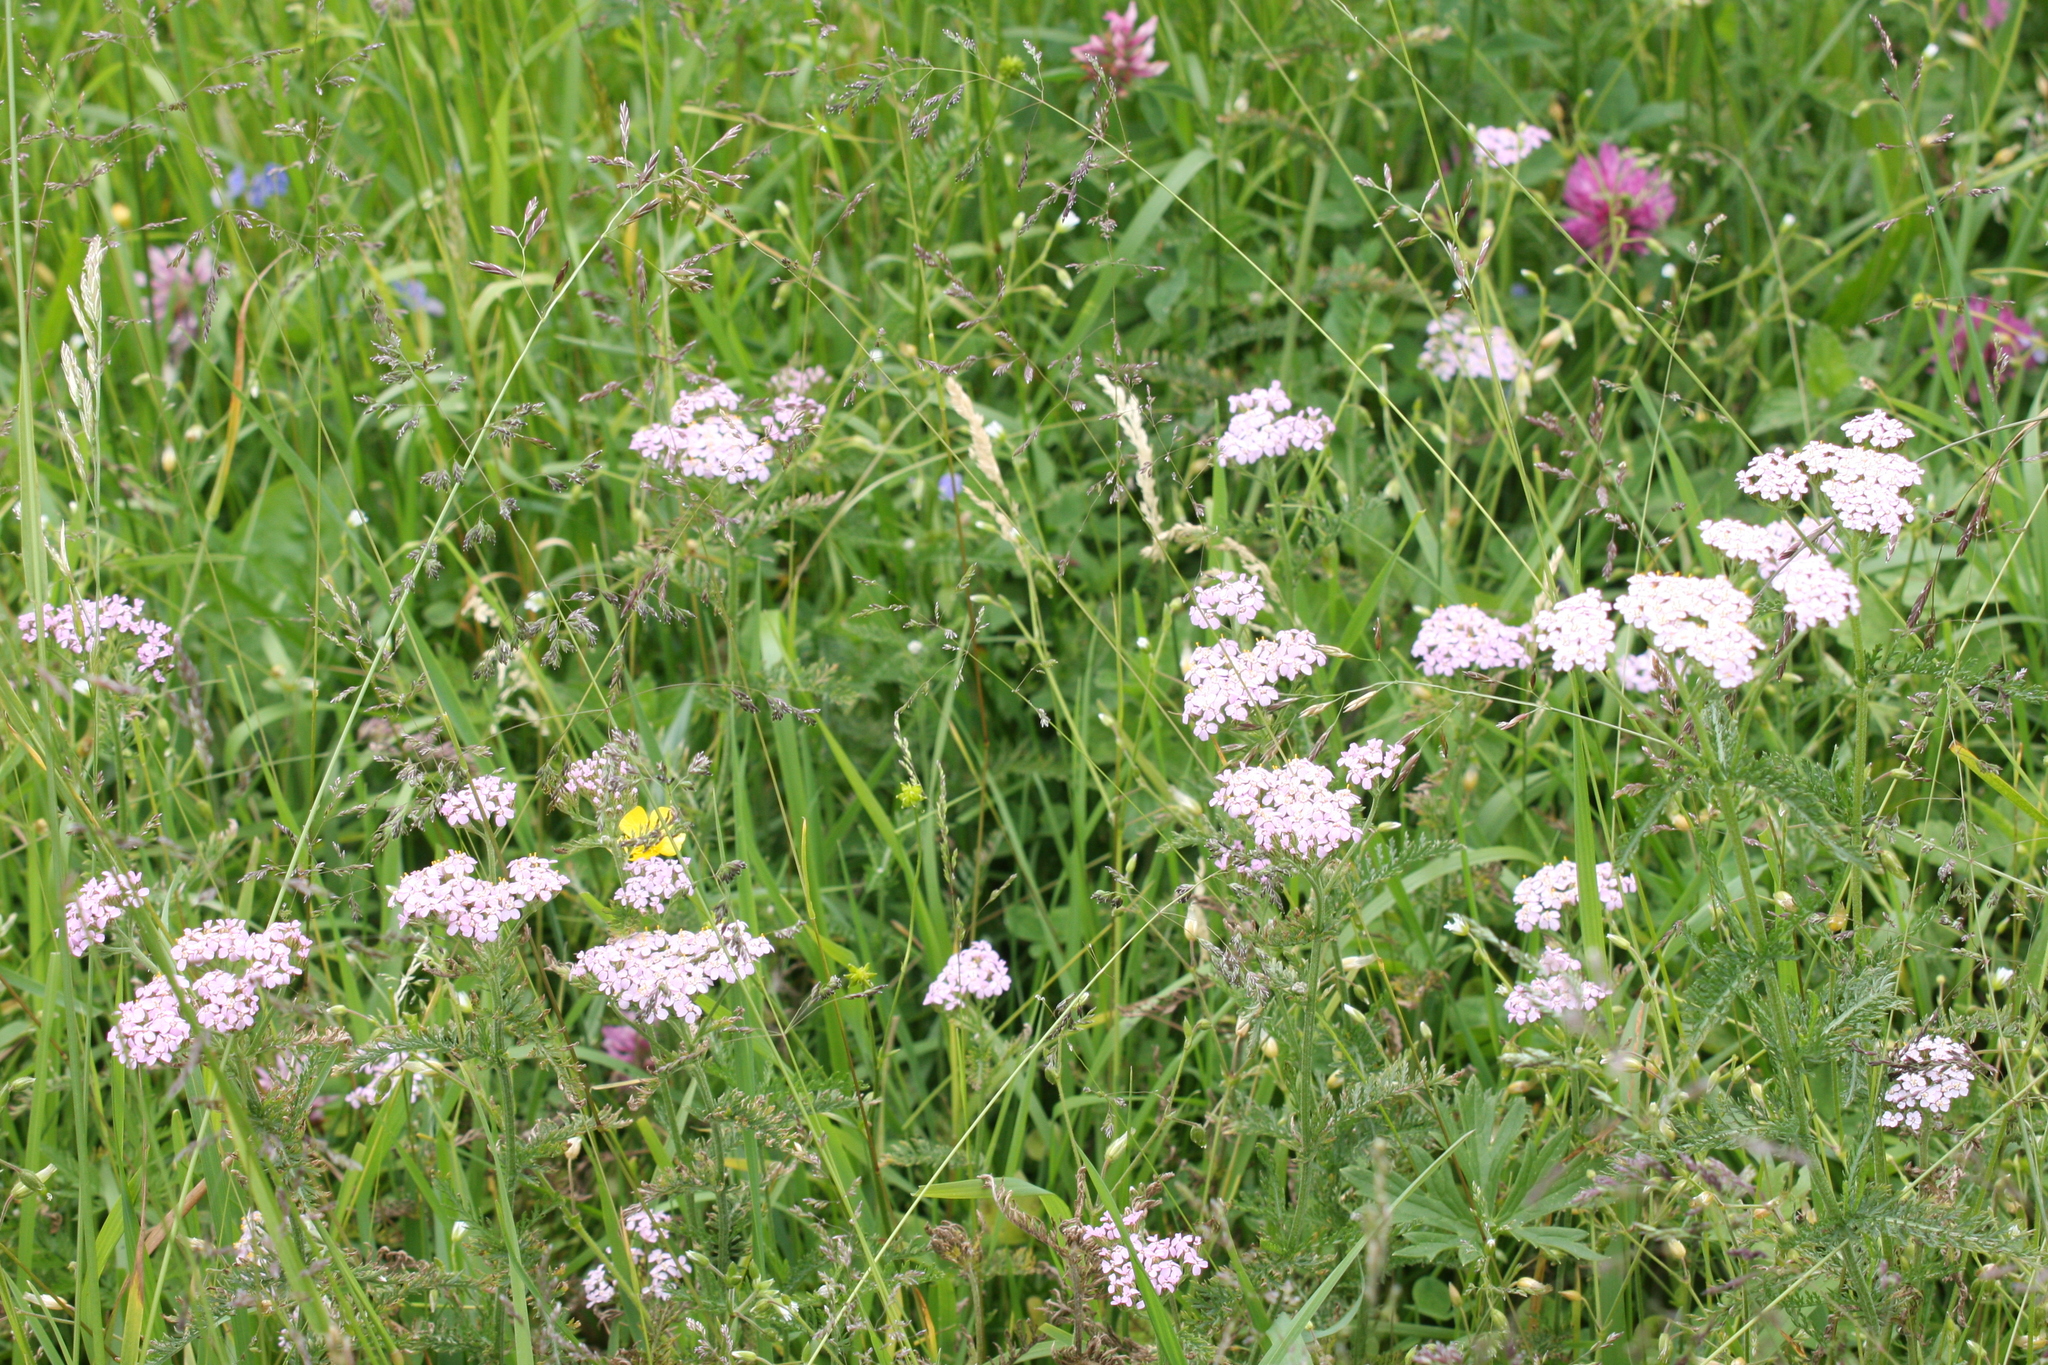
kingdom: Plantae
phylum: Tracheophyta
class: Magnoliopsida
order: Asterales
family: Asteraceae
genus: Achillea
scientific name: Achillea millefolium
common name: Yarrow
